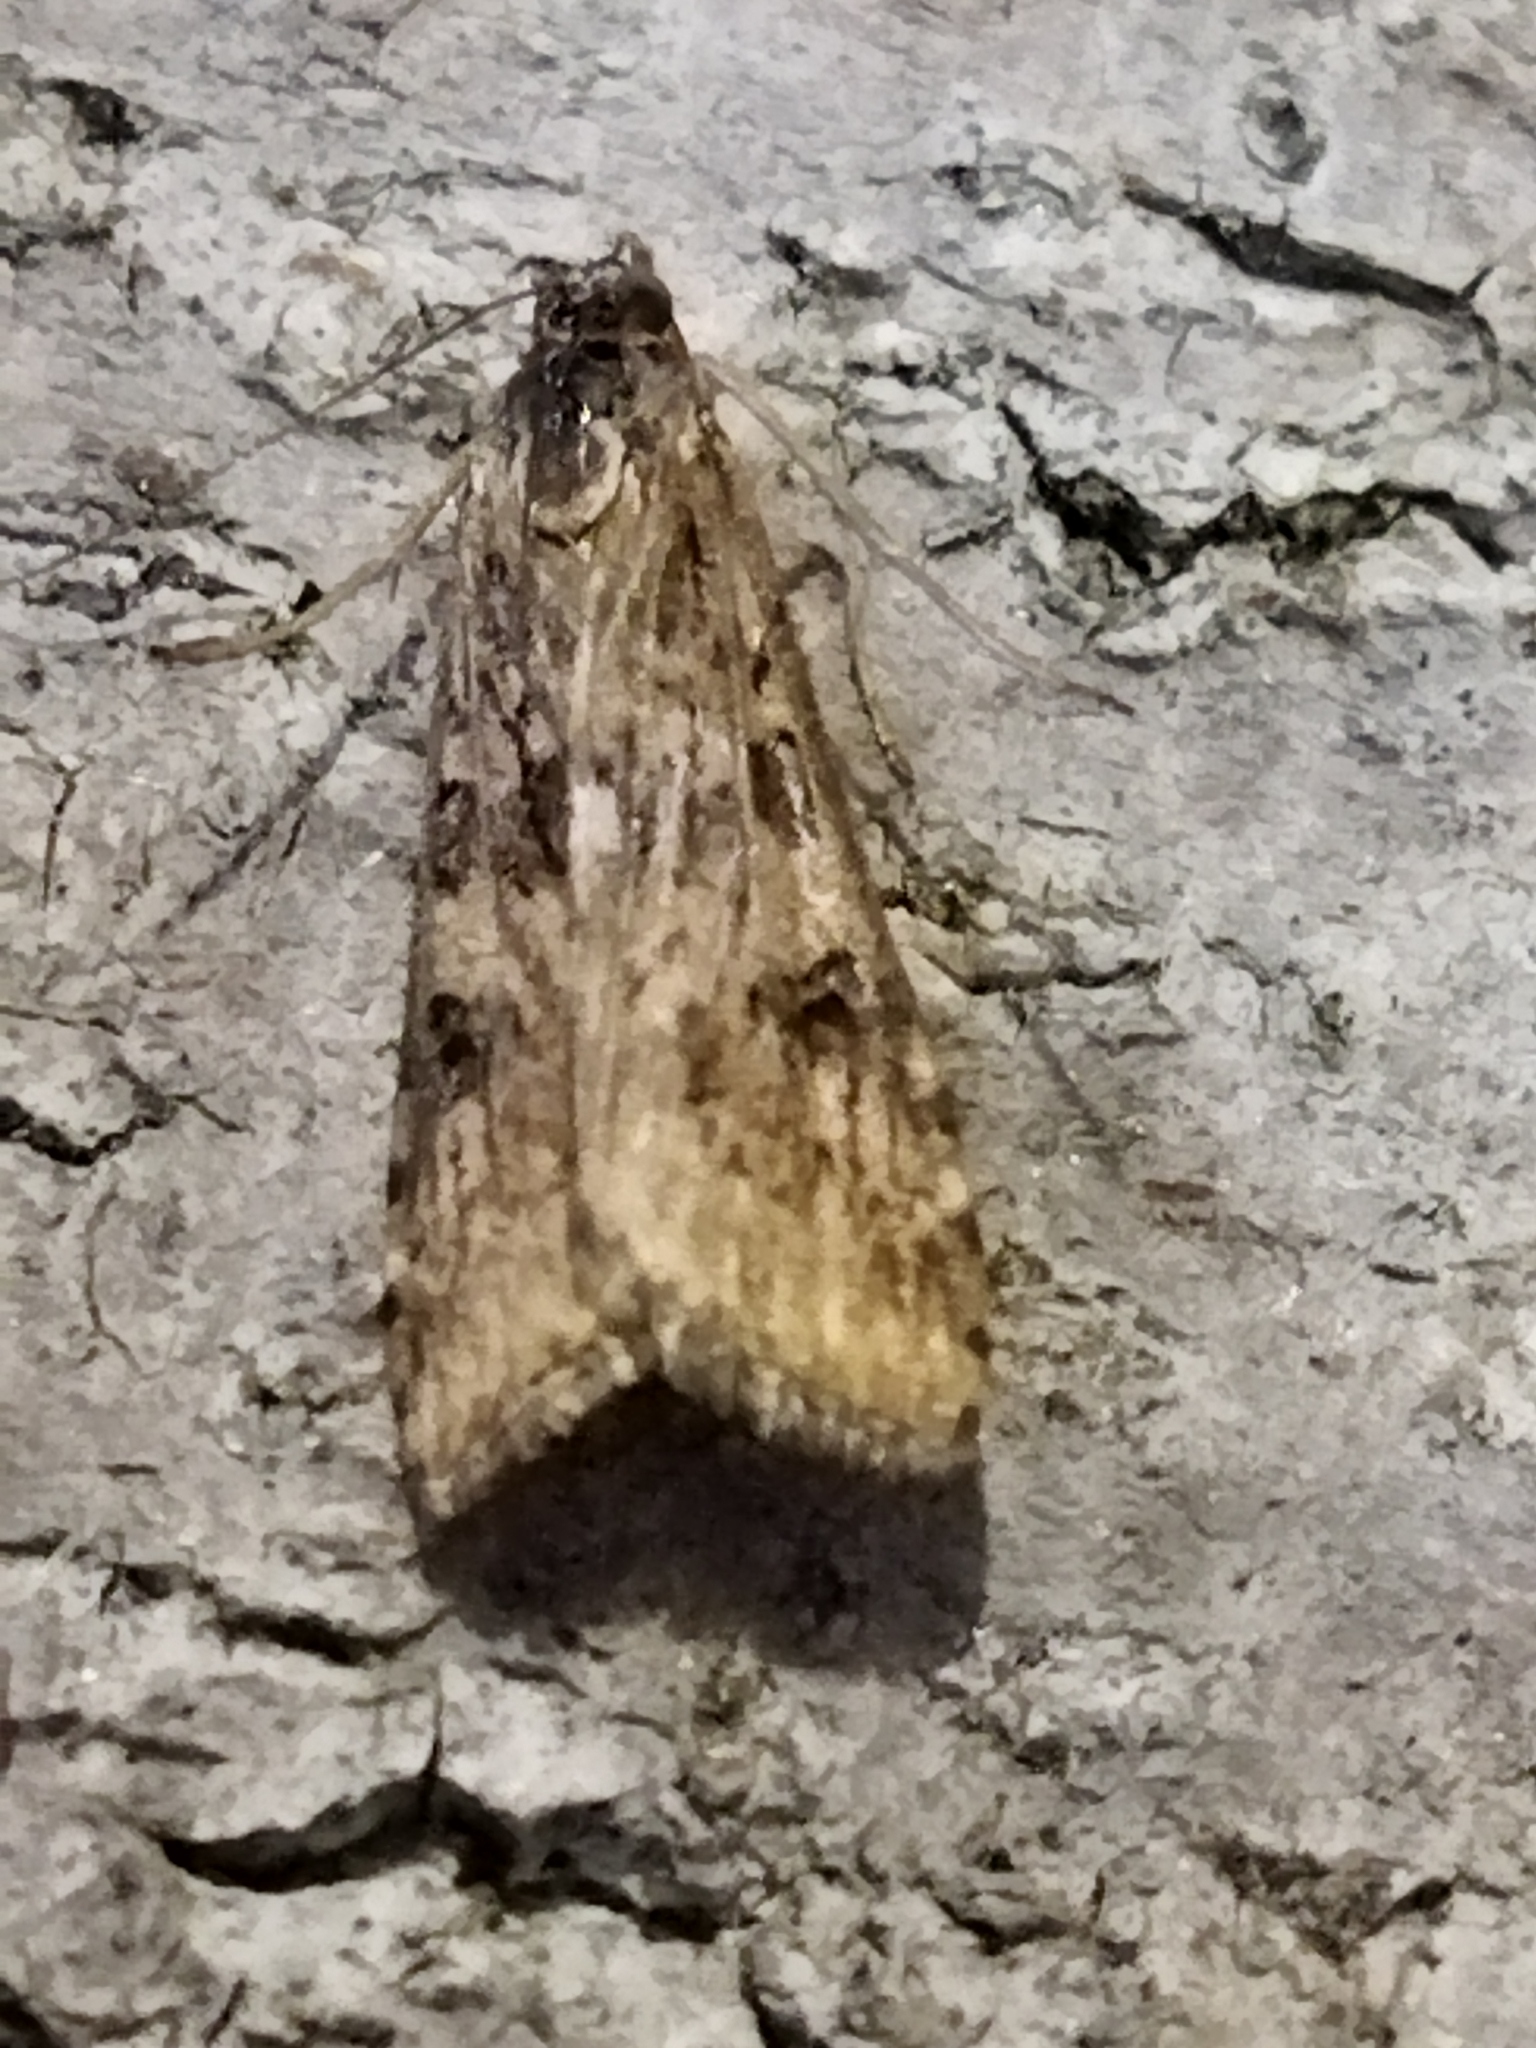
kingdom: Animalia
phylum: Arthropoda
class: Insecta
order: Lepidoptera
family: Crambidae
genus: Nomophila
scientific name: Nomophila noctuella
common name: Rush veneer
